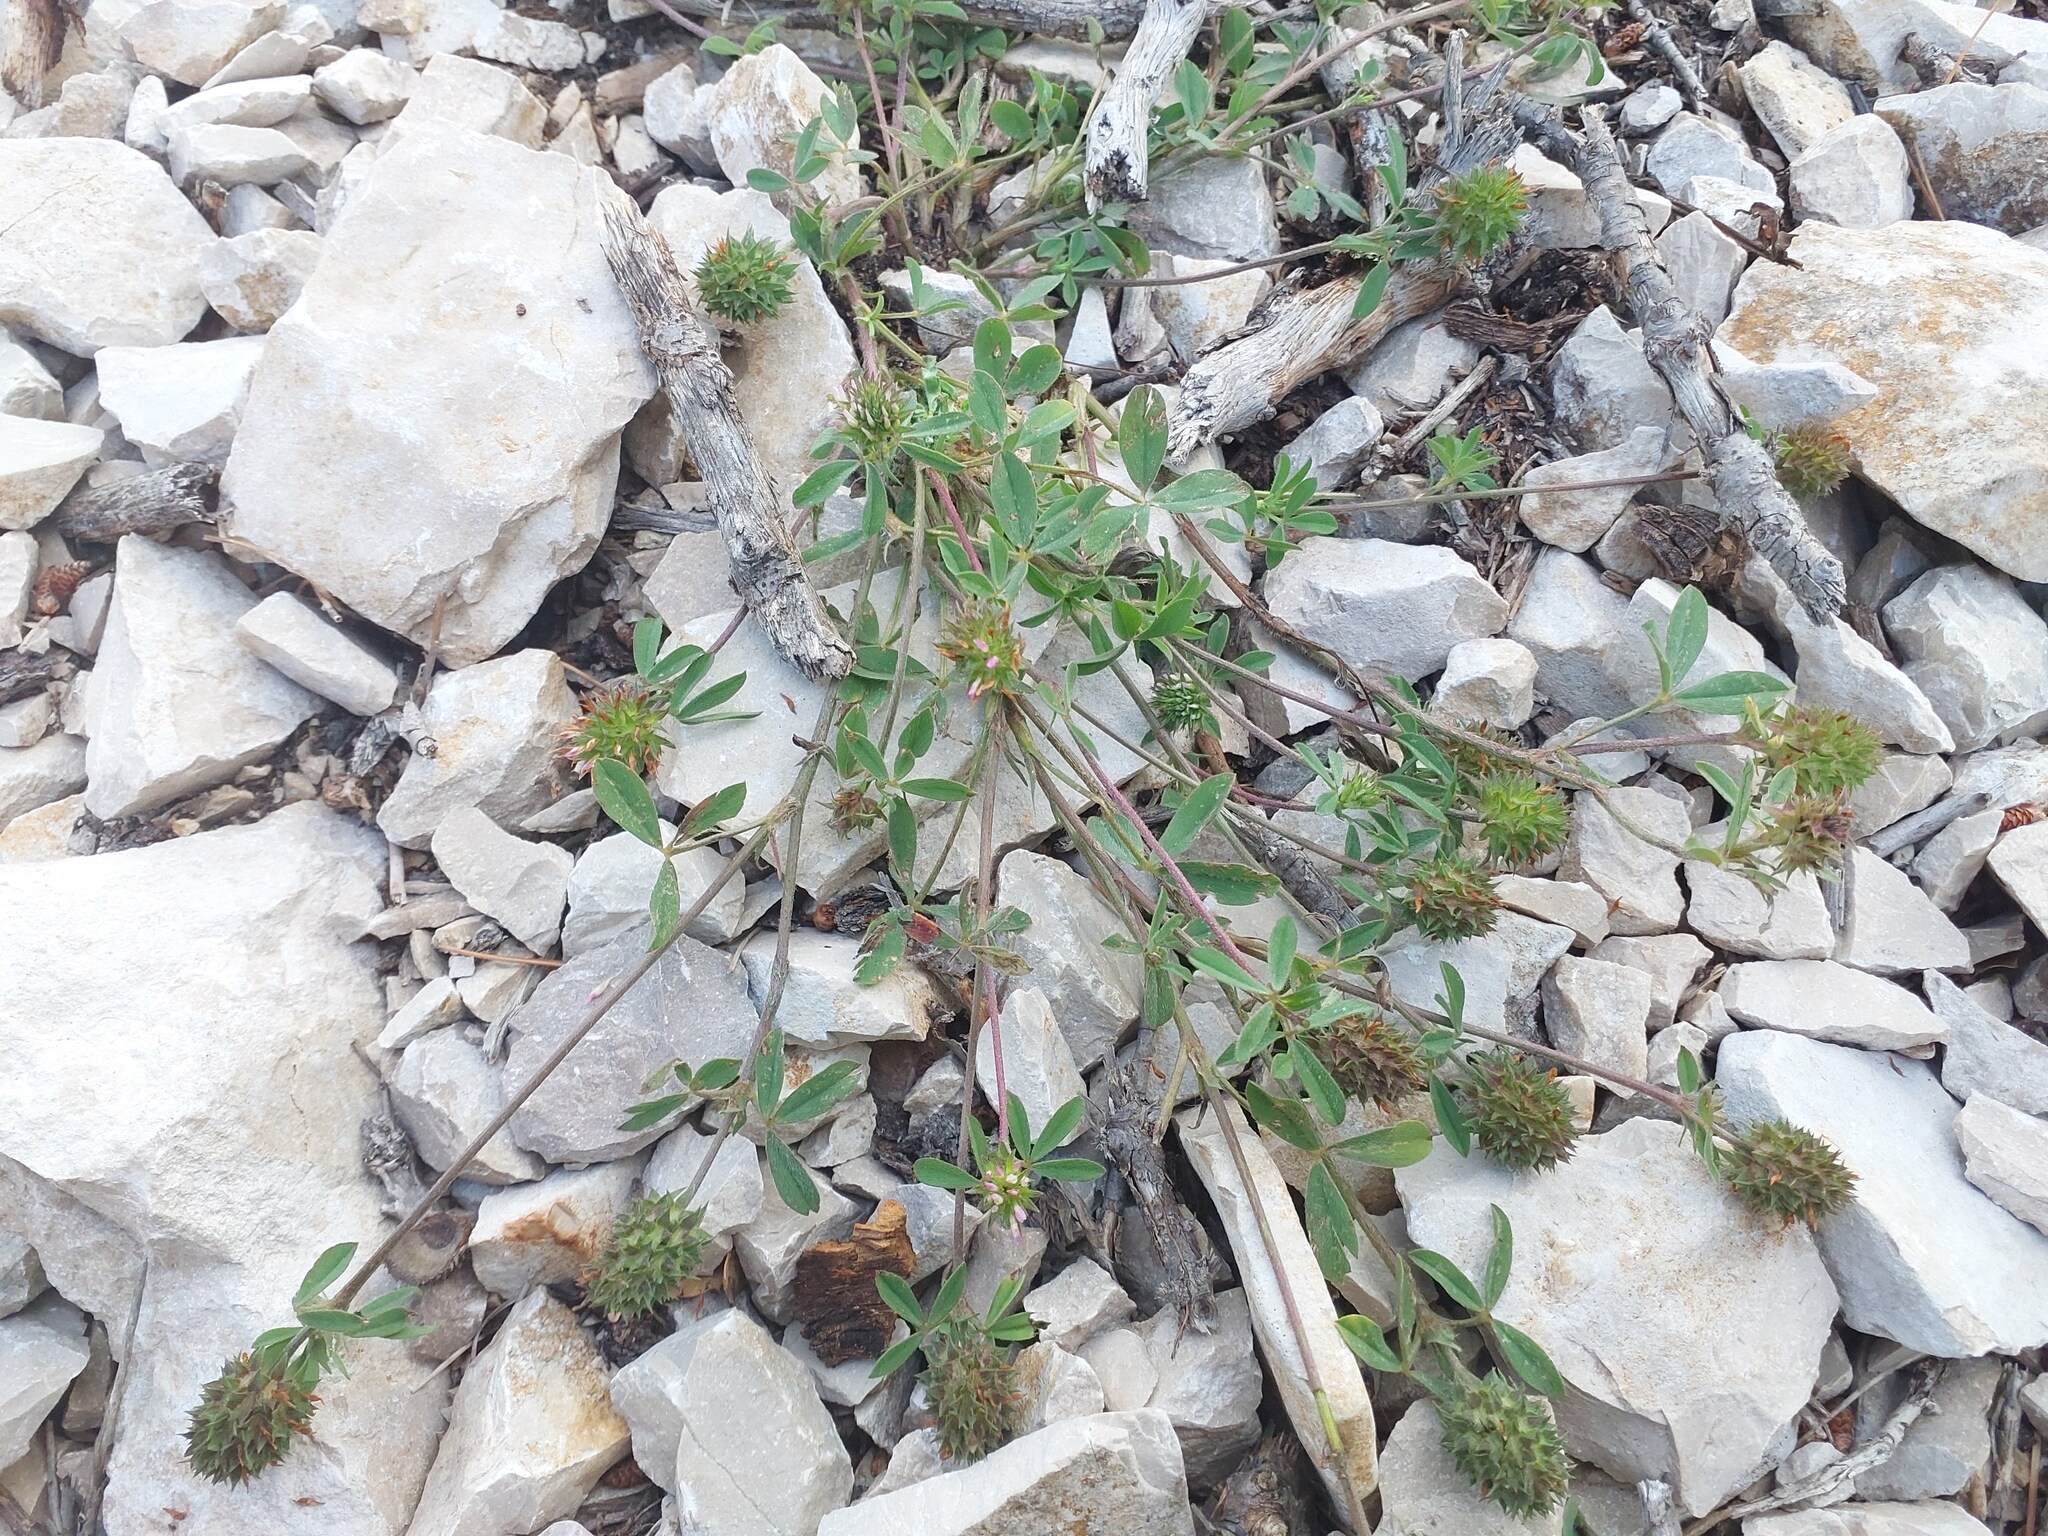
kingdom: Plantae
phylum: Tracheophyta
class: Magnoliopsida
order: Fabales
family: Fabaceae
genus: Trifolium
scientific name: Trifolium squamosum
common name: Sea clover
